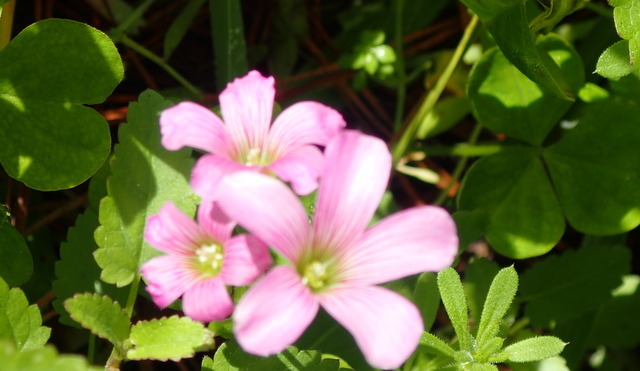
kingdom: Plantae
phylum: Tracheophyta
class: Magnoliopsida
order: Oxalidales
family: Oxalidaceae
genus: Oxalis
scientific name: Oxalis debilis
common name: Large-flowered pink-sorrel
